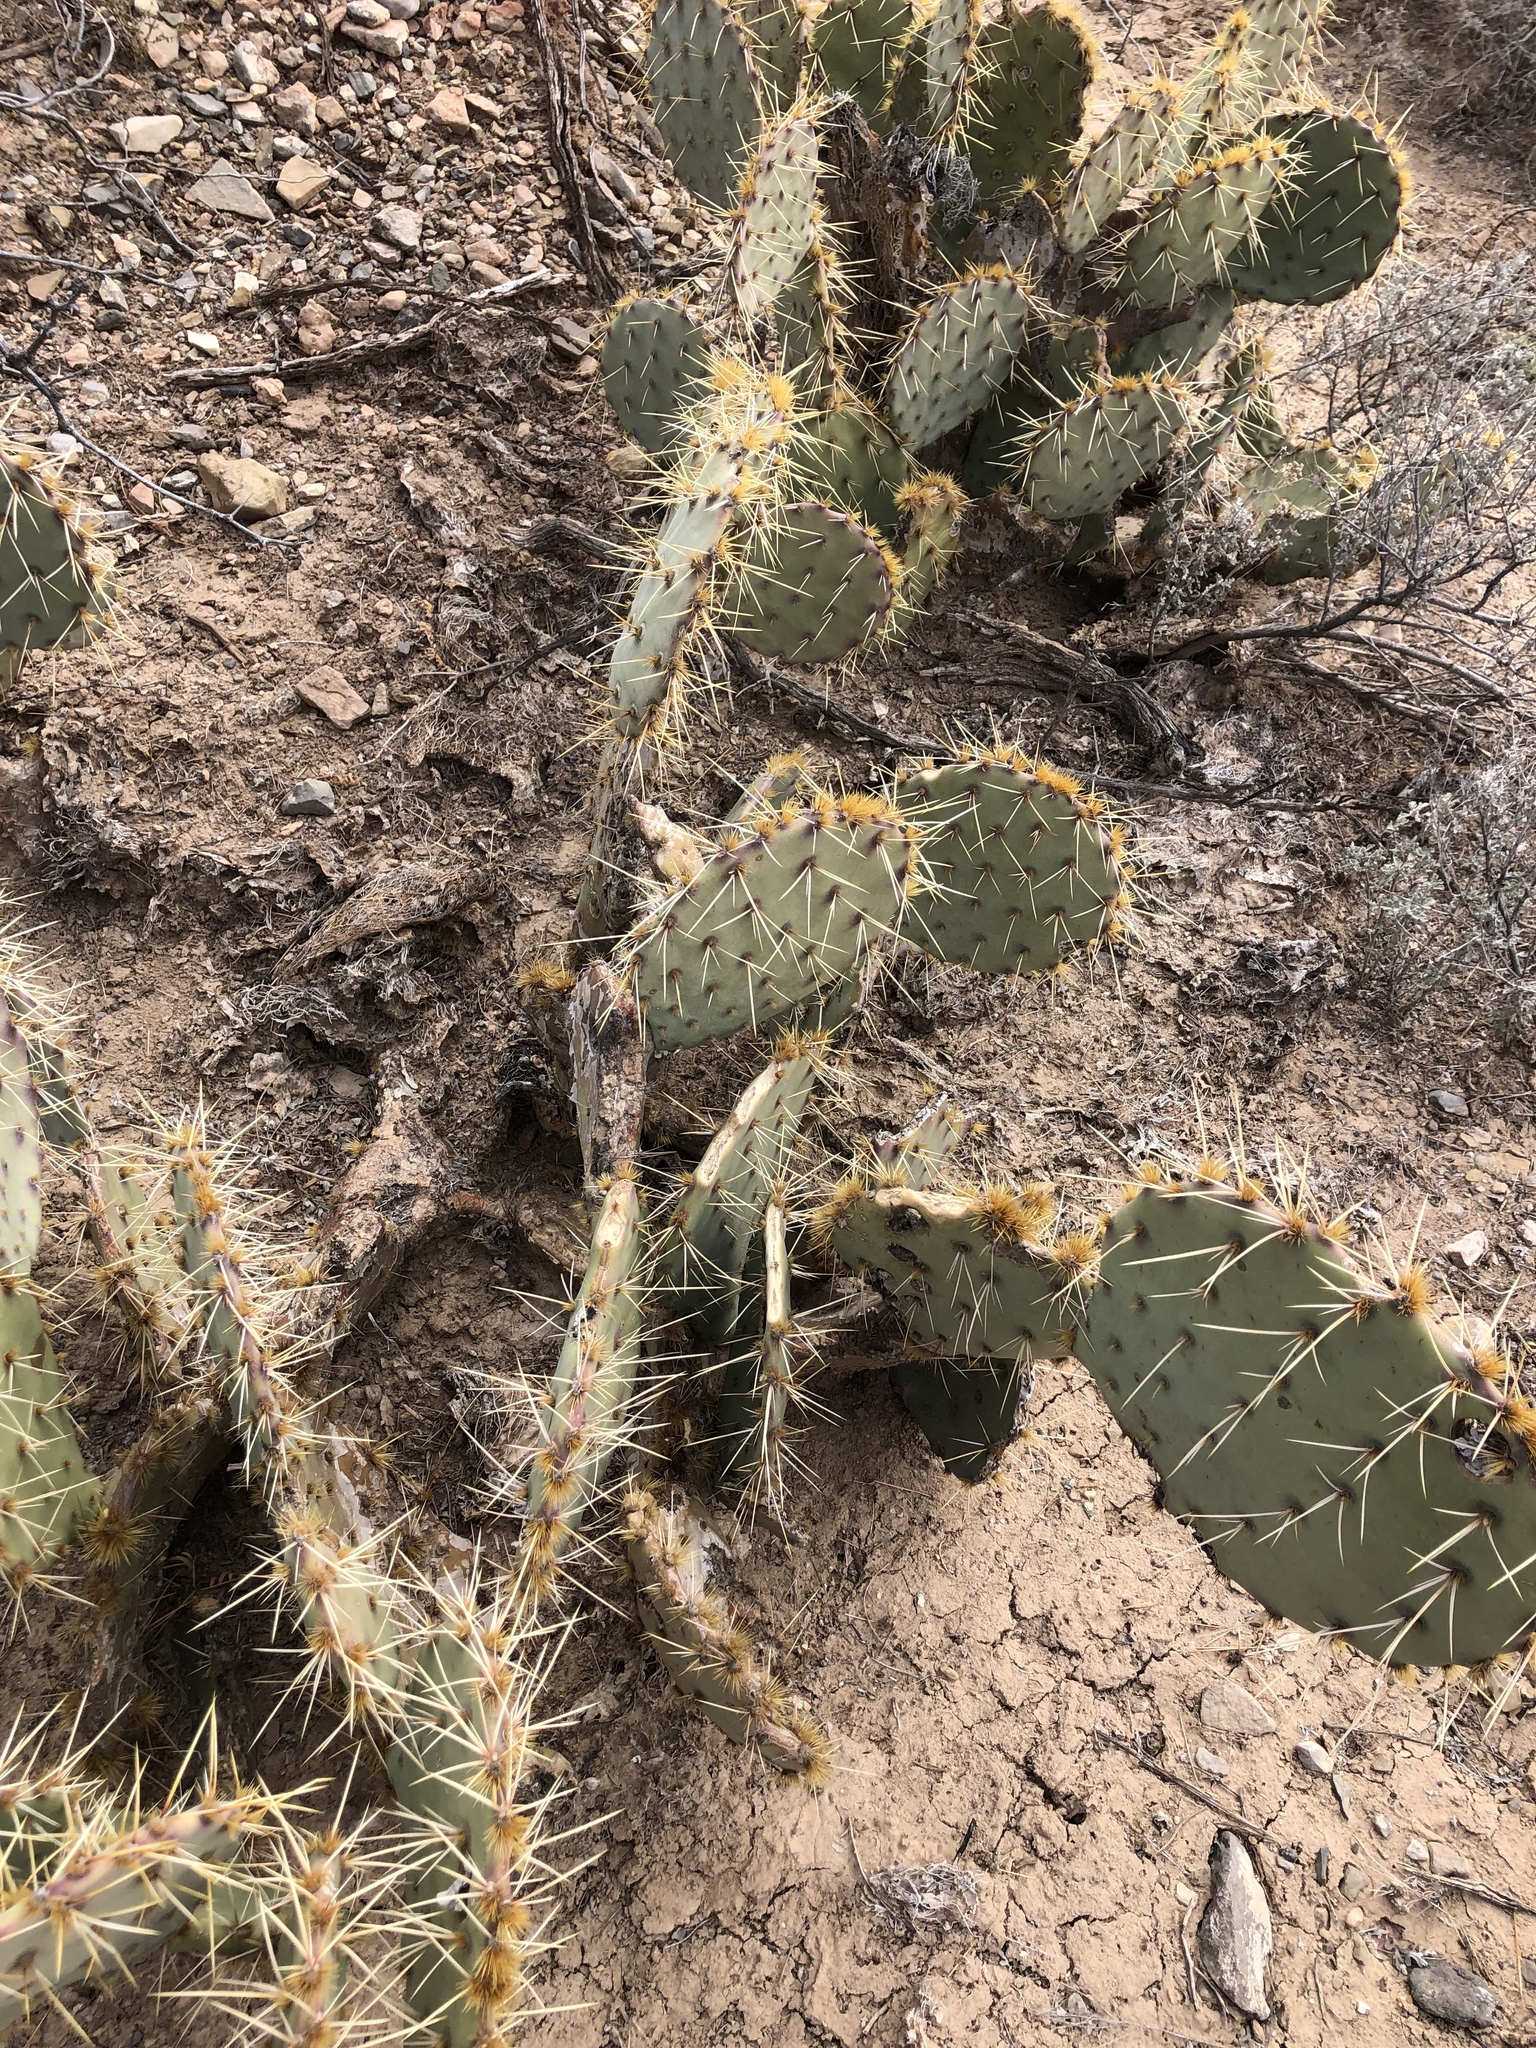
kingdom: Plantae
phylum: Tracheophyta
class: Magnoliopsida
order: Caryophyllales
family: Cactaceae
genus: Opuntia
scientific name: Opuntia engelmannii
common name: Cactus-apple
